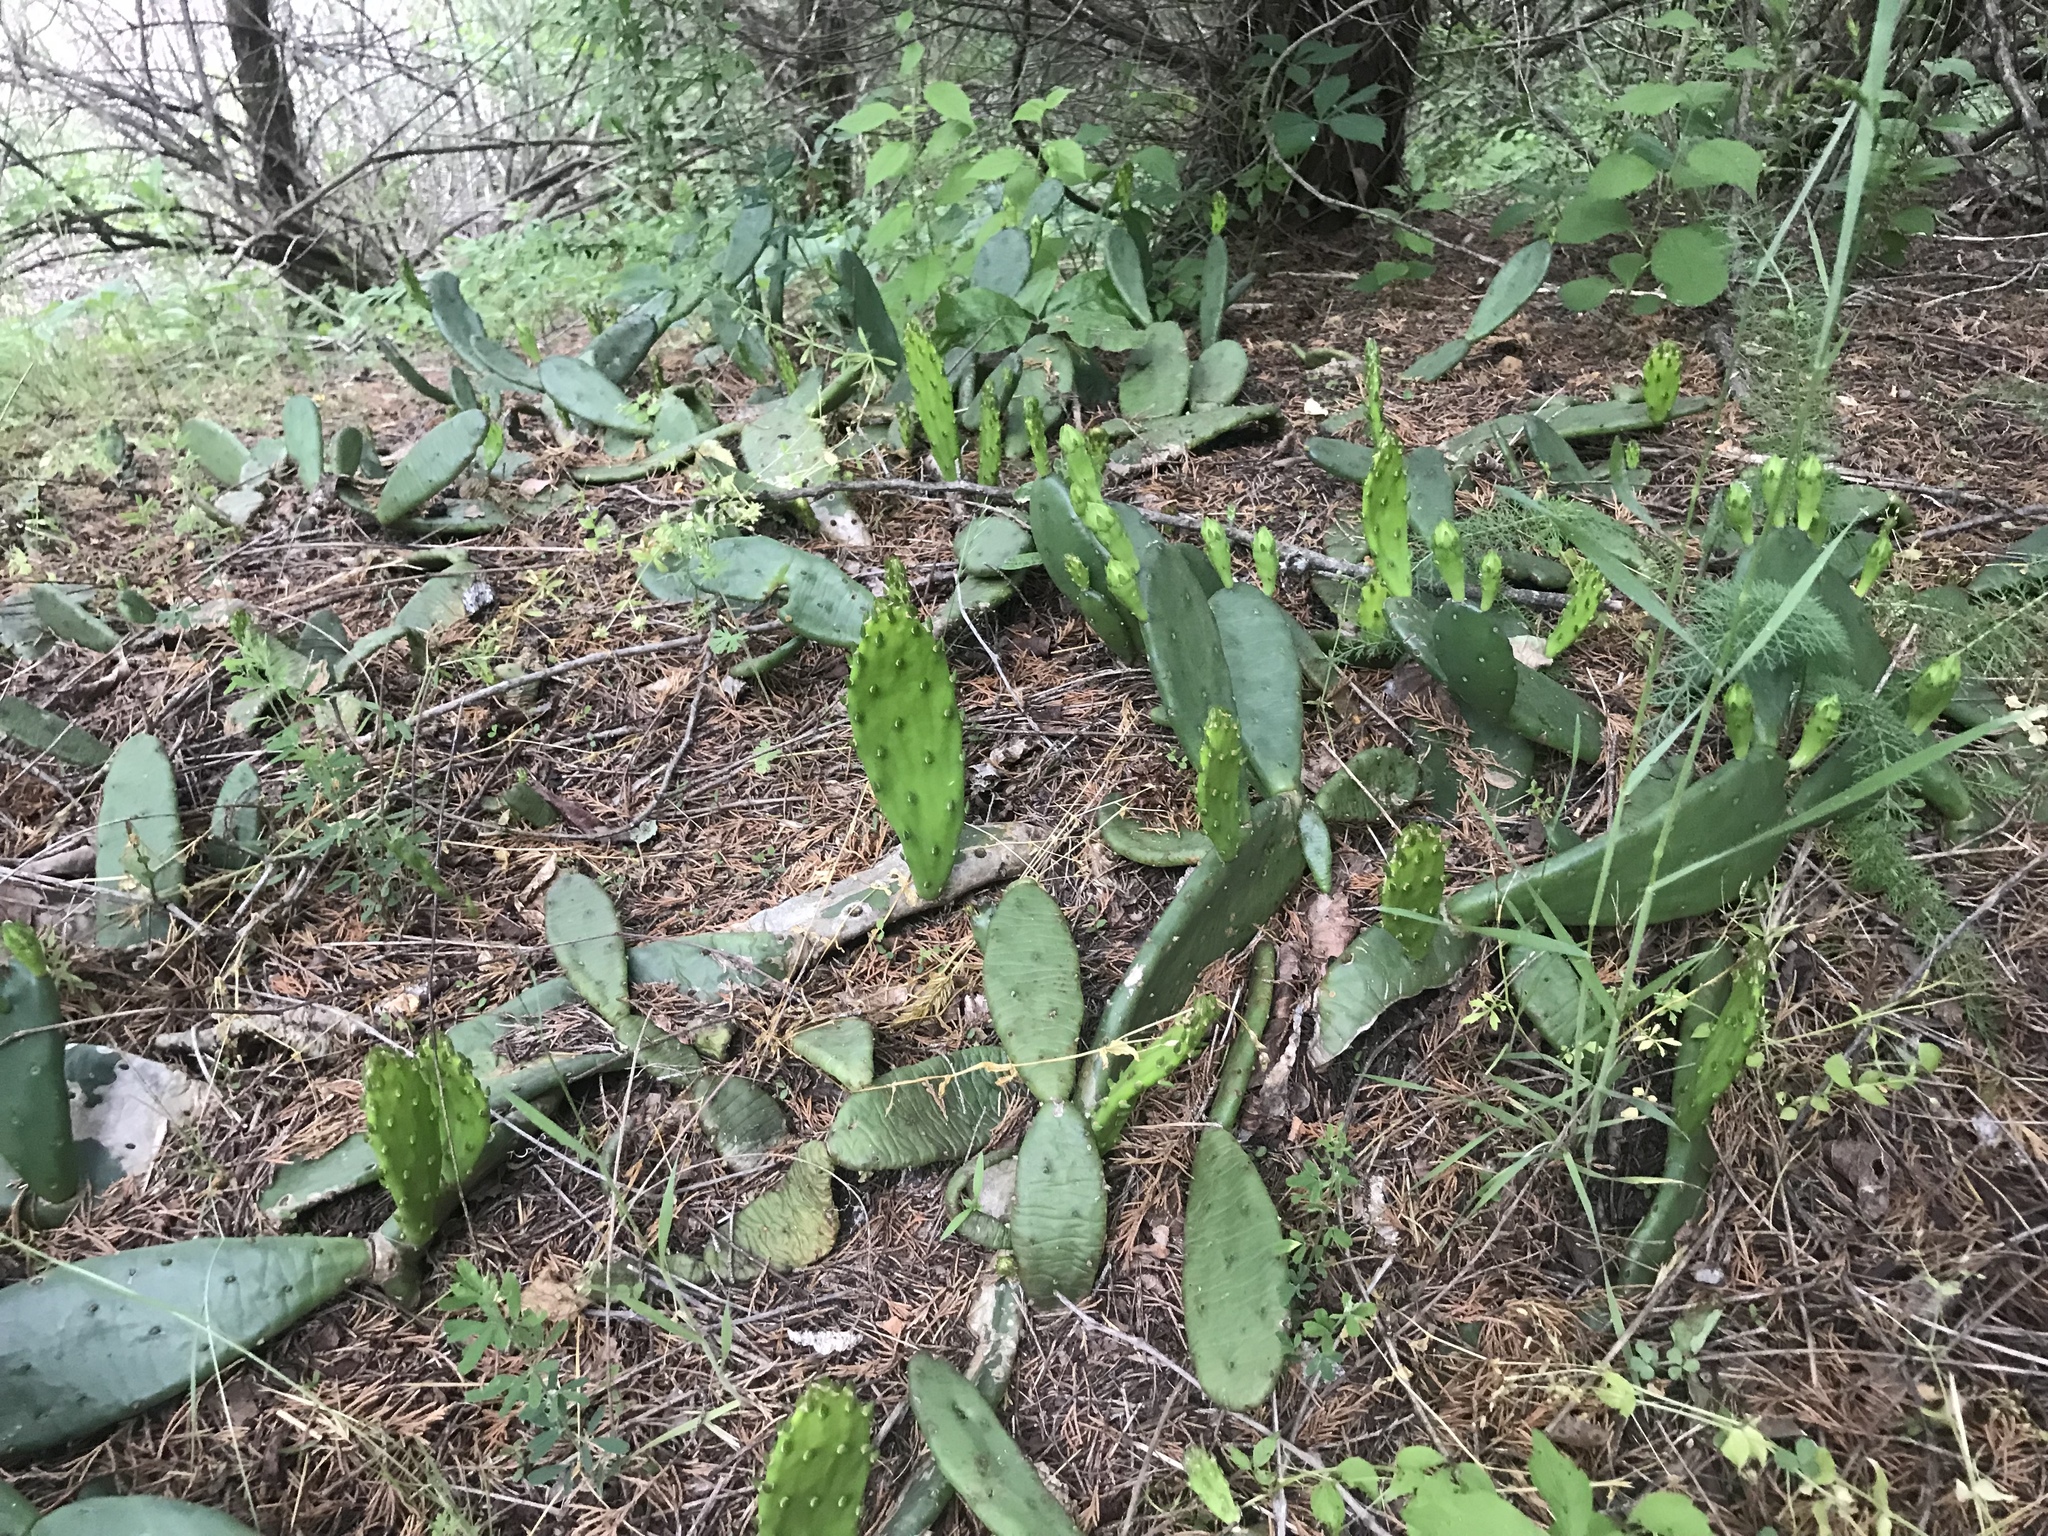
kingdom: Plantae
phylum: Tracheophyta
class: Magnoliopsida
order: Caryophyllales
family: Cactaceae
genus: Opuntia
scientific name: Opuntia humifusa
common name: Eastern prickly-pear
